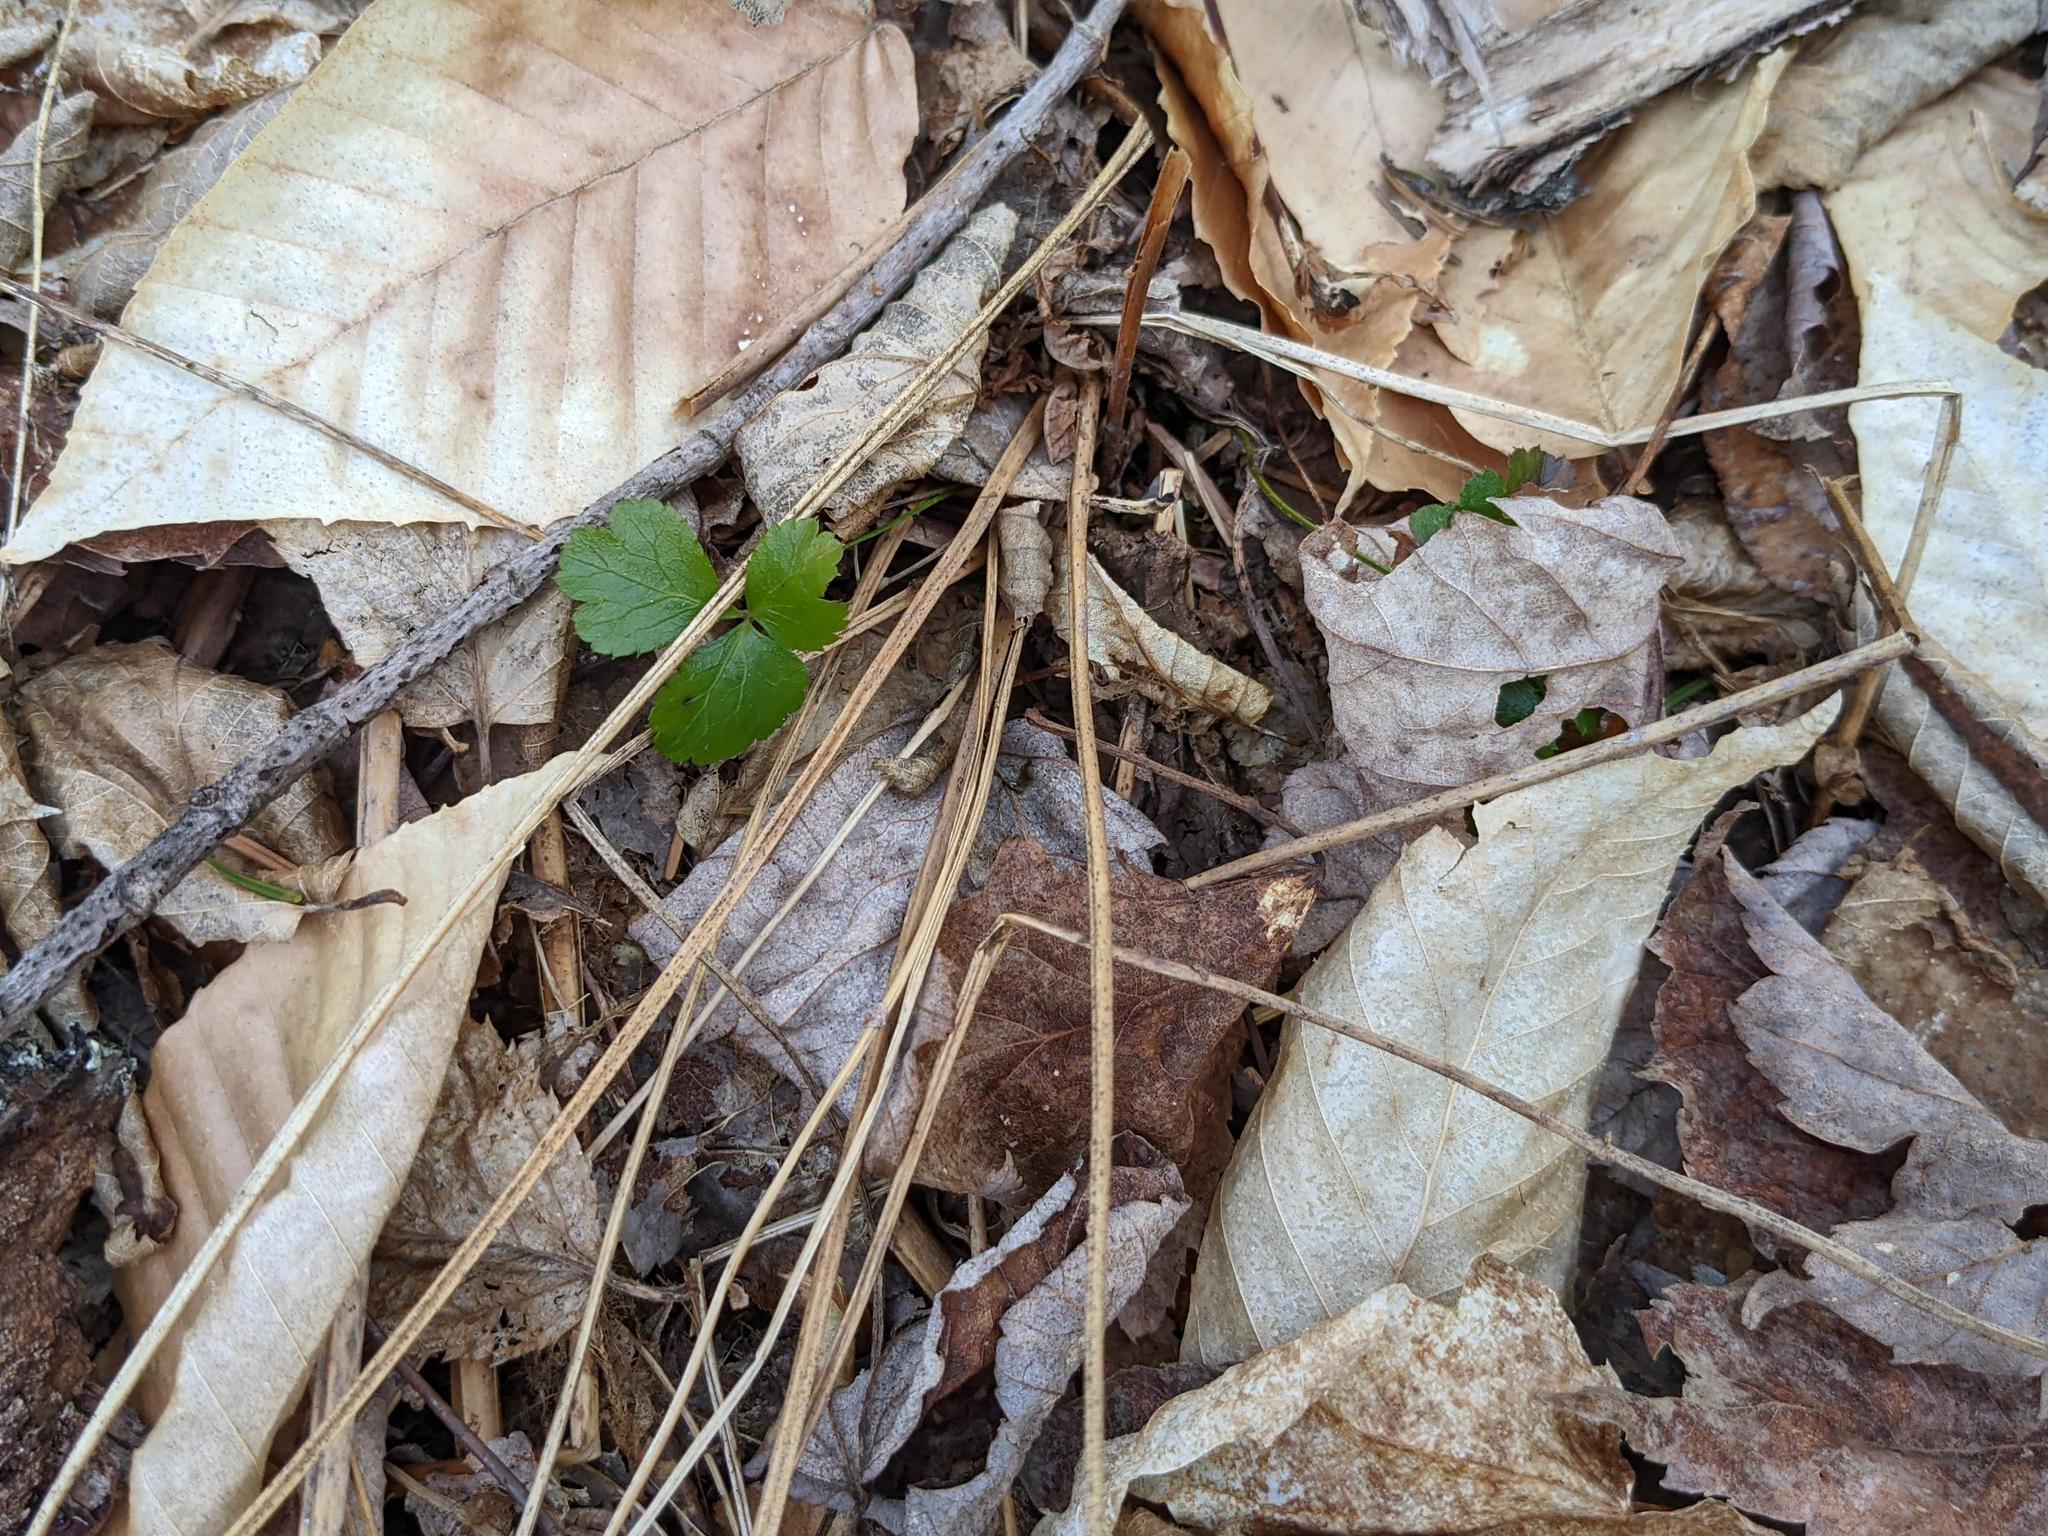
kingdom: Plantae
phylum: Tracheophyta
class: Magnoliopsida
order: Ranunculales
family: Ranunculaceae
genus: Coptis
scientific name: Coptis trifolia
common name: Canker-root
